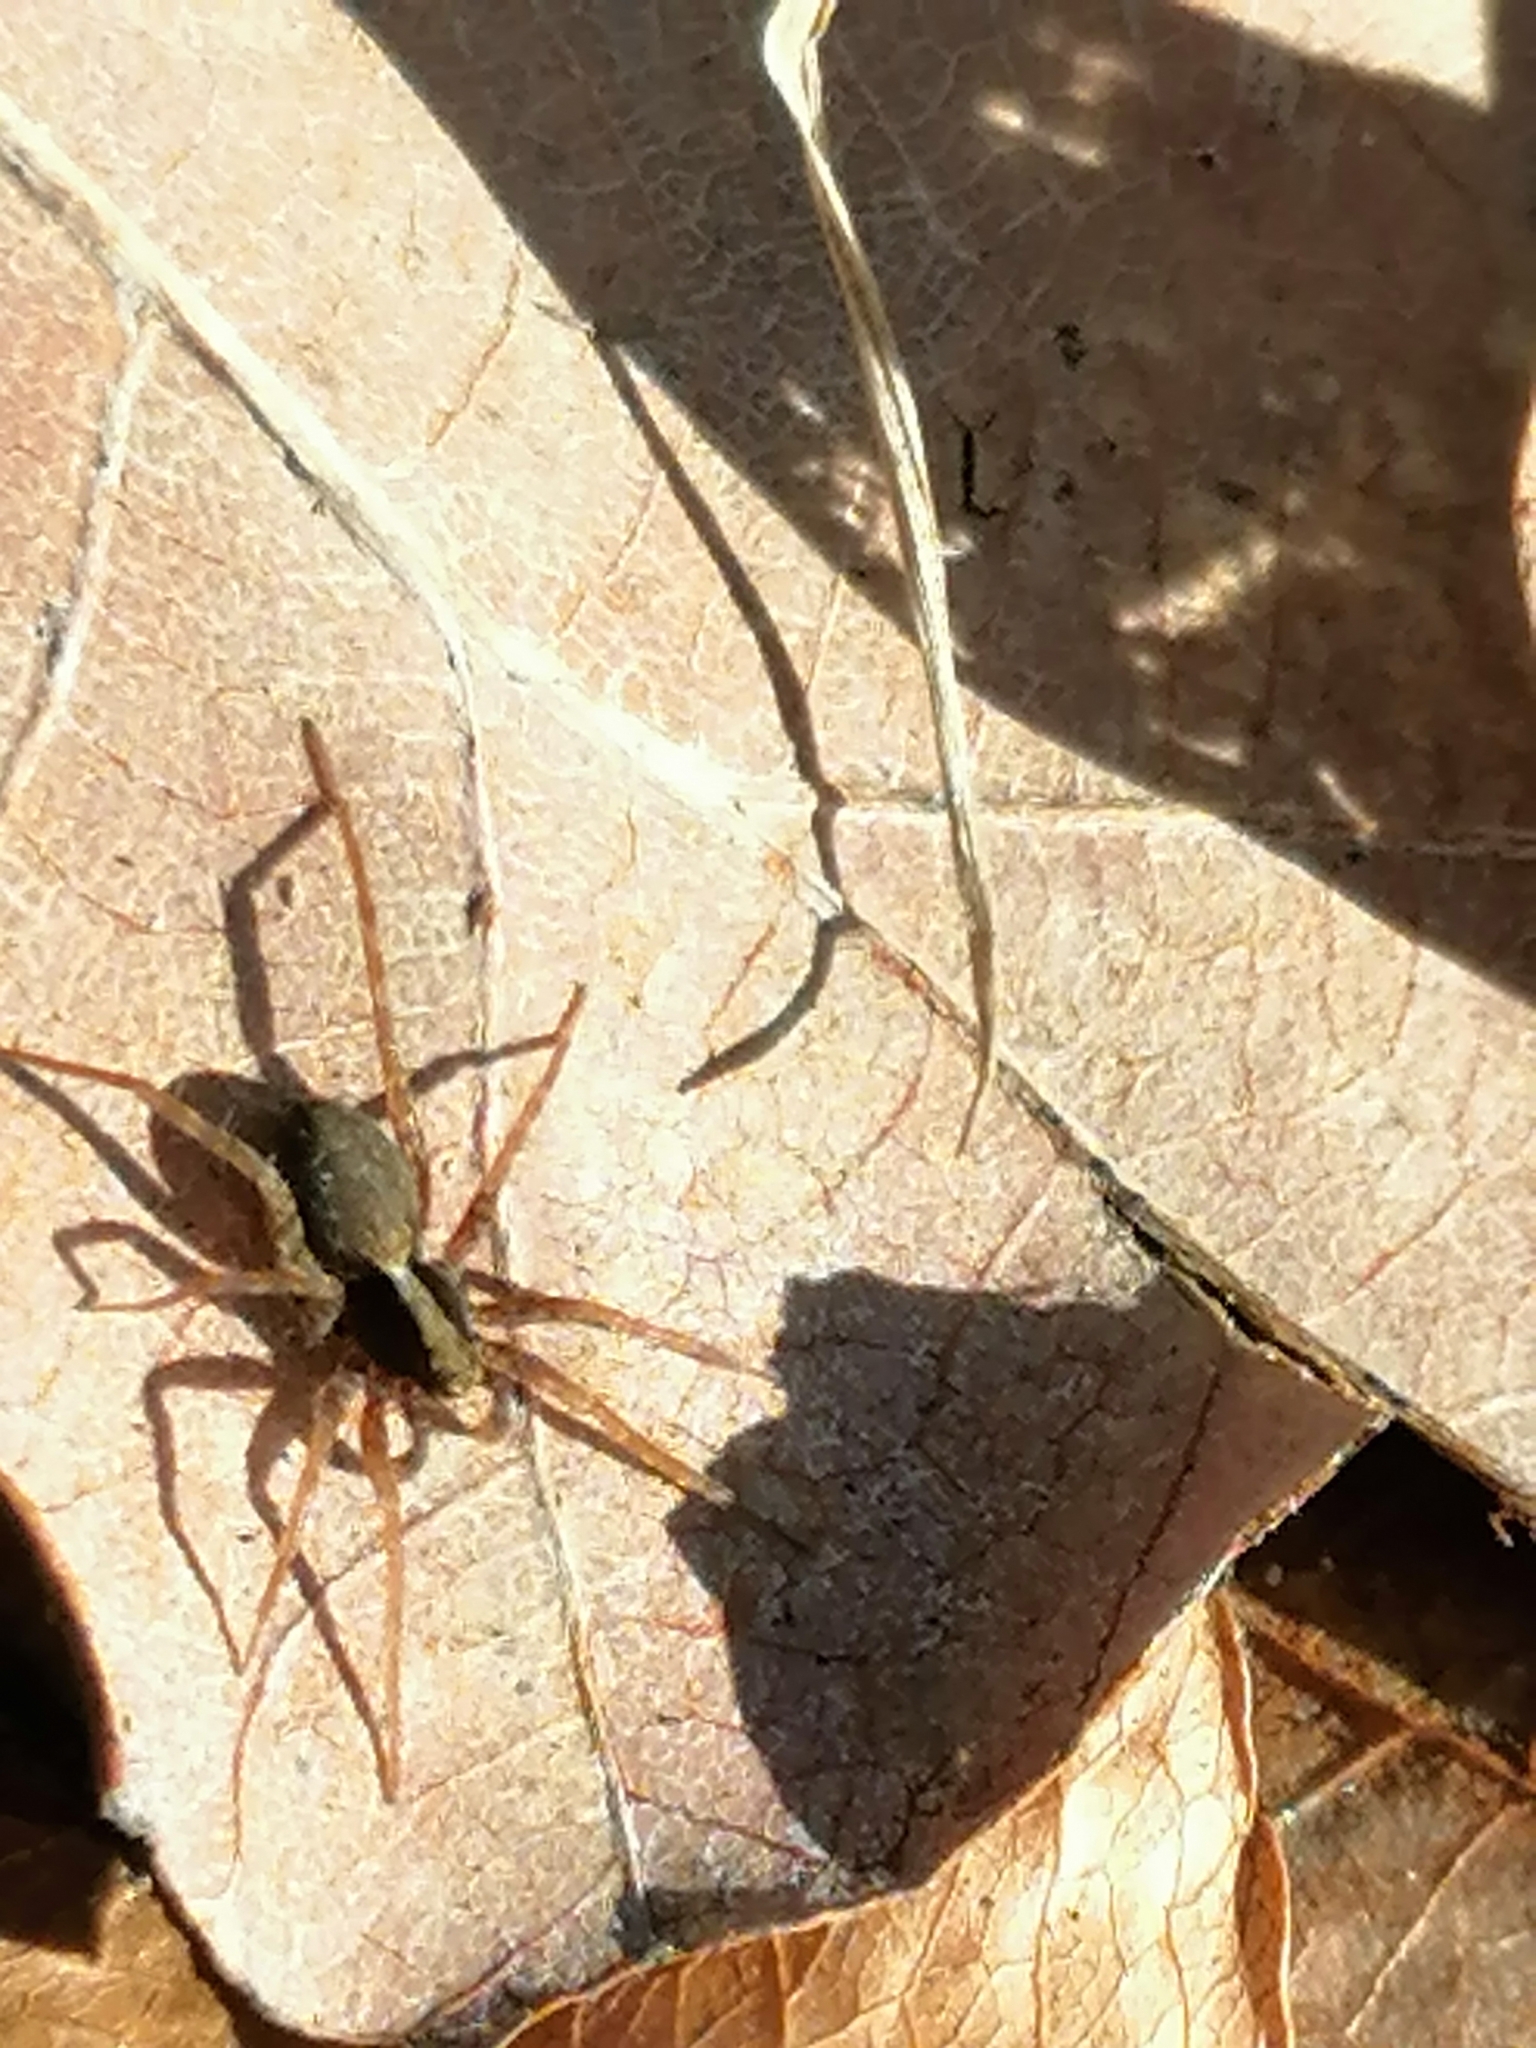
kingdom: Animalia
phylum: Arthropoda
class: Arachnida
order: Araneae
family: Lycosidae
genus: Pardosa
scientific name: Pardosa
